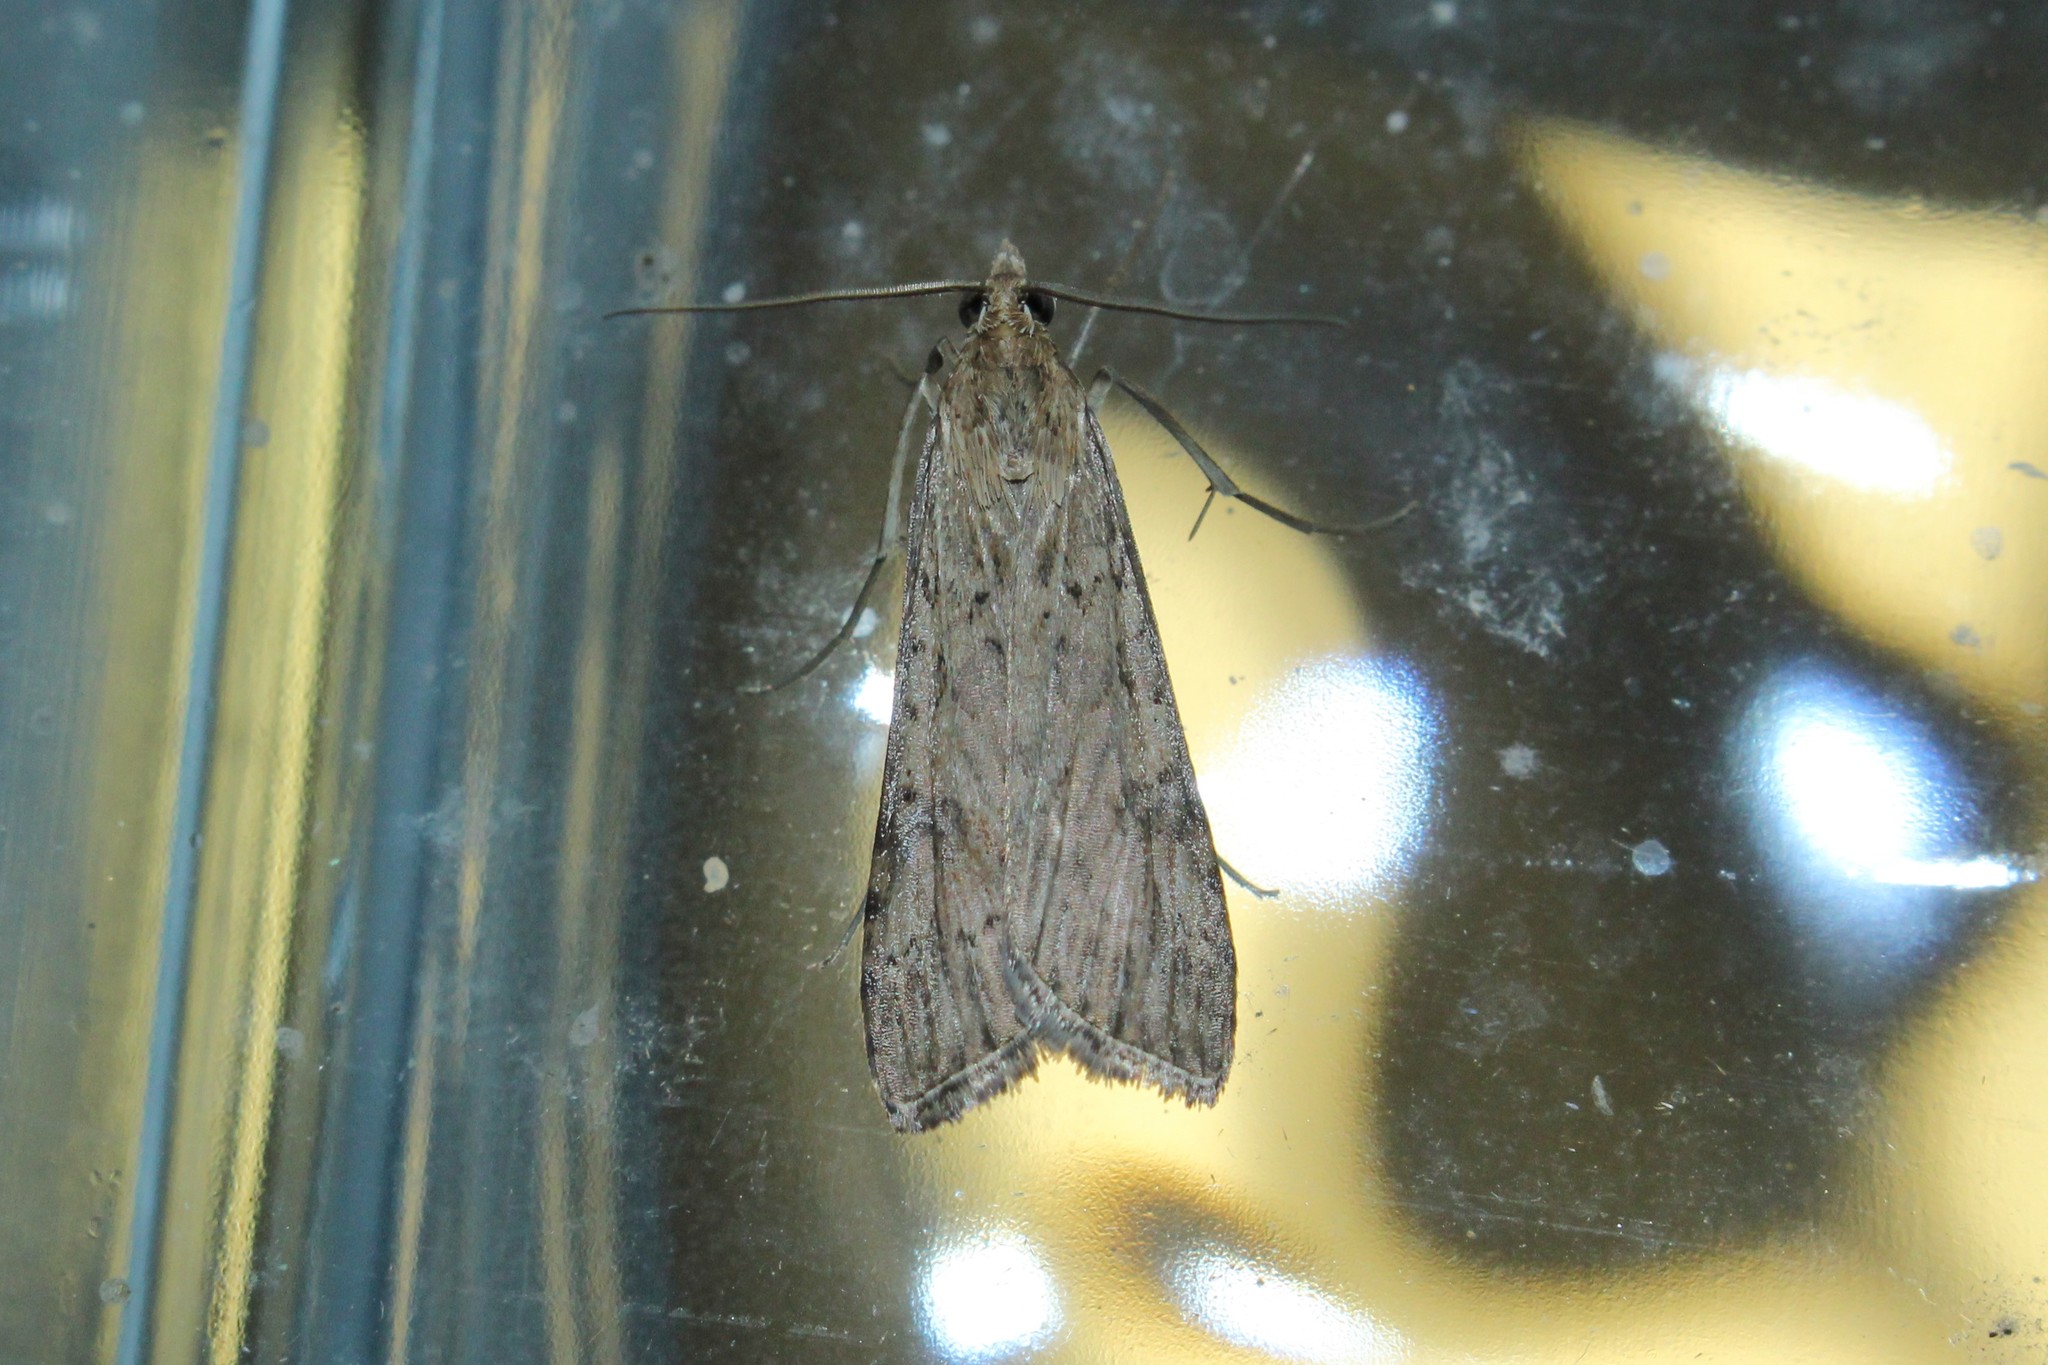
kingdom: Animalia
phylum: Arthropoda
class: Insecta
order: Lepidoptera
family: Crambidae
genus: Nomophila
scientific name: Nomophila nearctica
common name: American rush veneer
